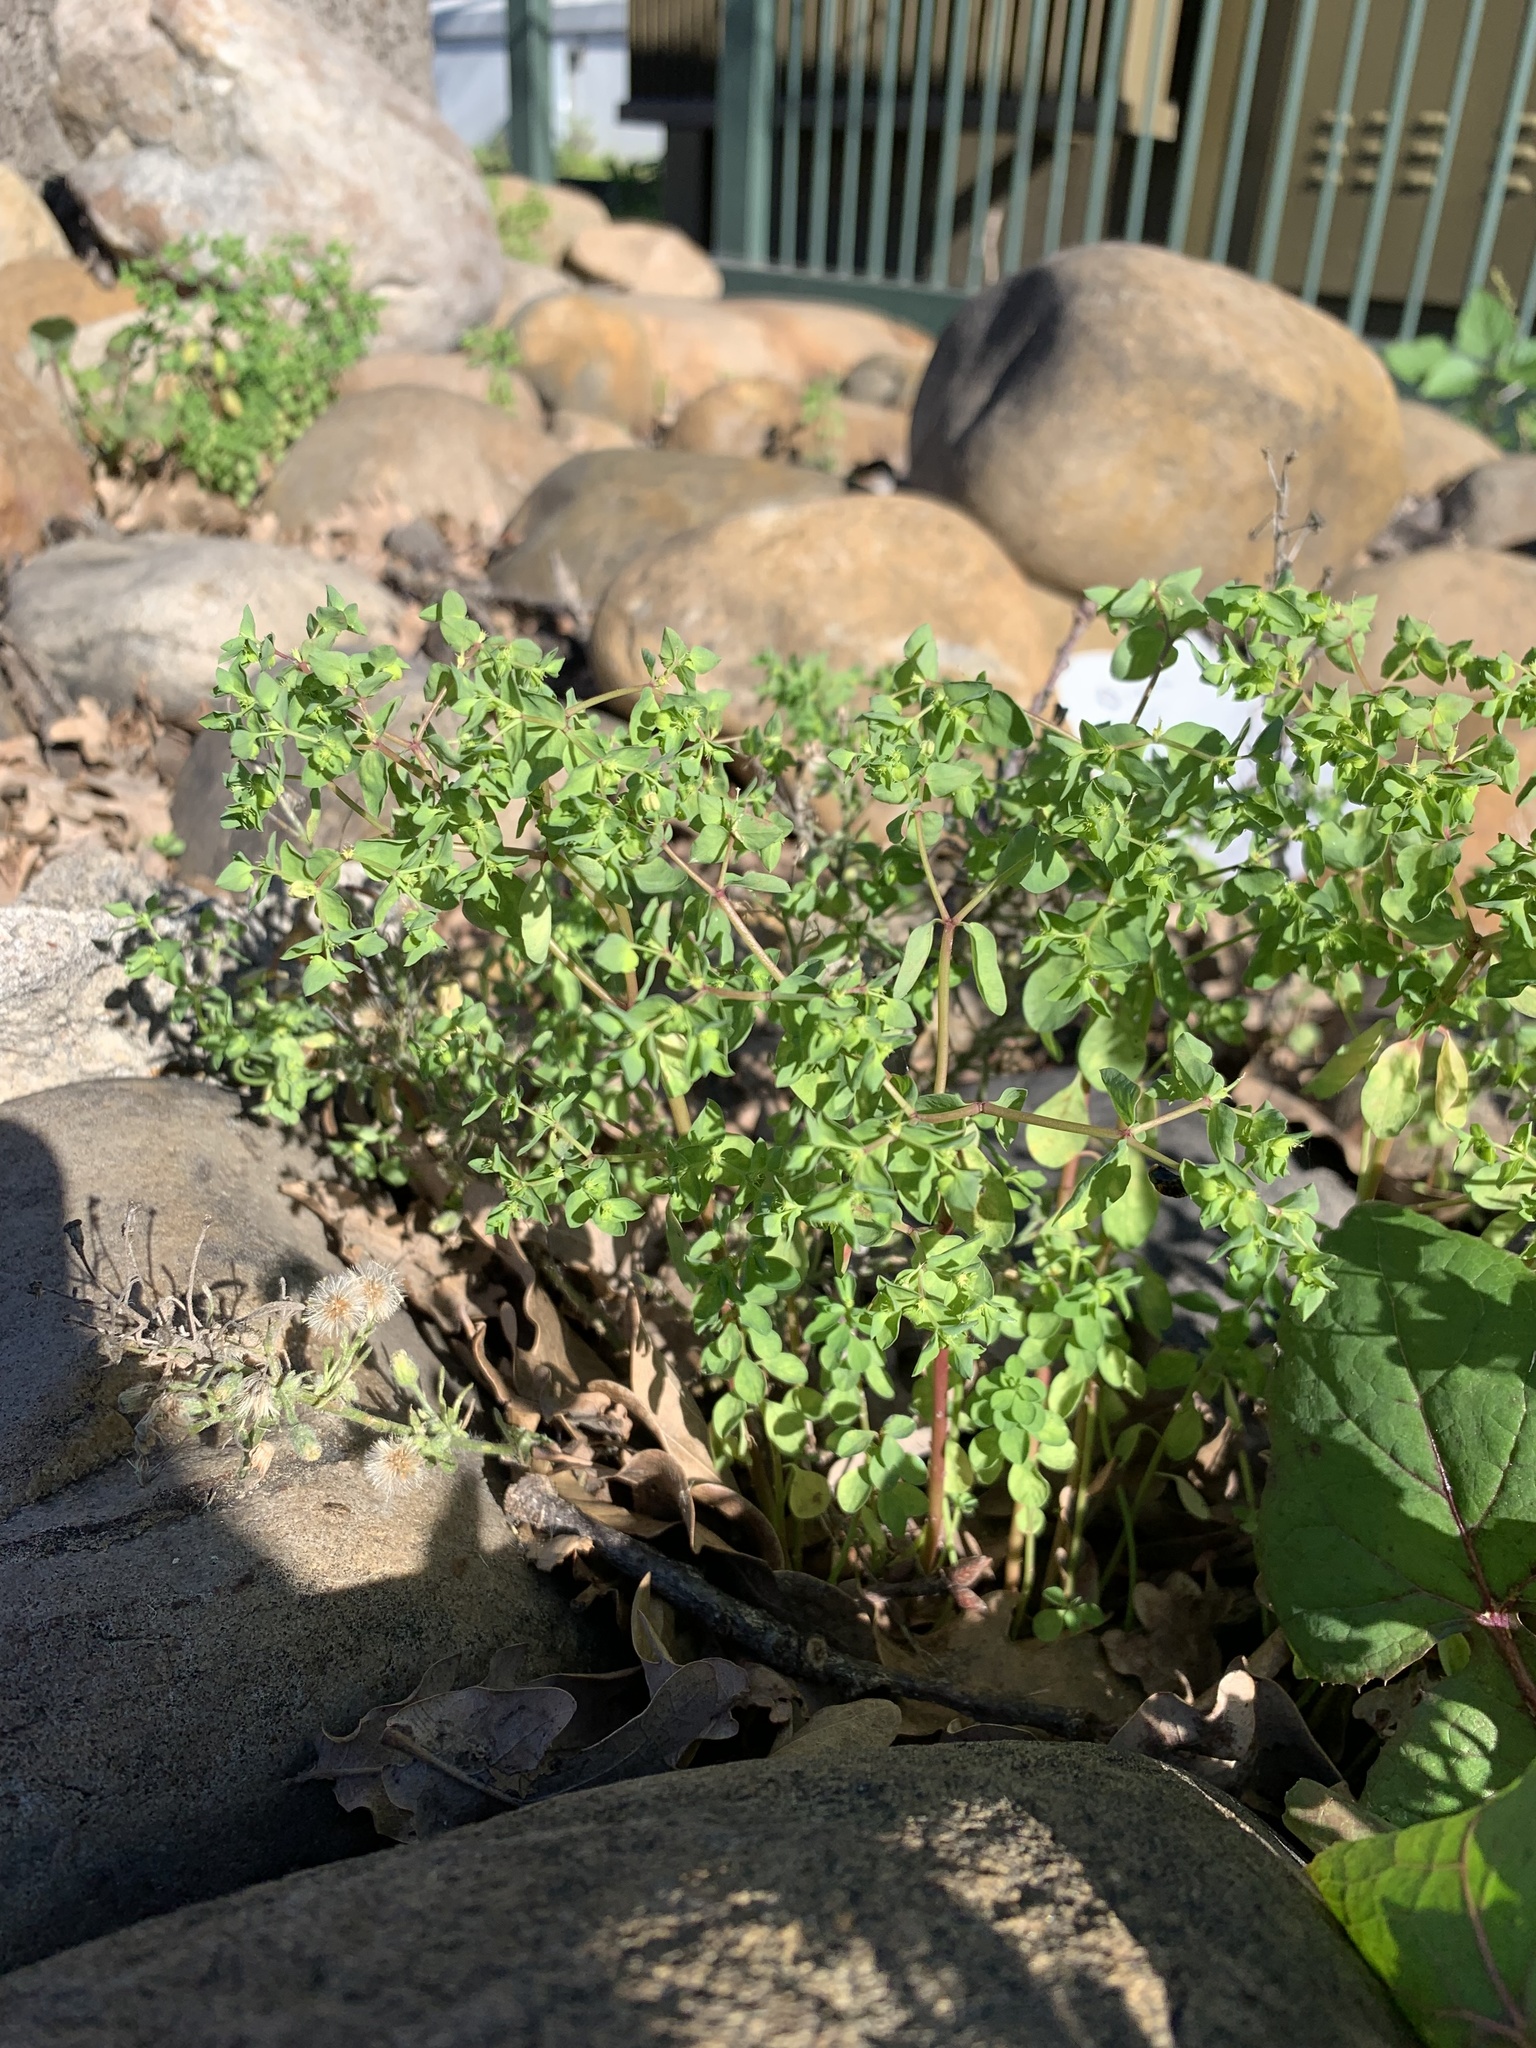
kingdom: Plantae
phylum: Tracheophyta
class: Magnoliopsida
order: Malpighiales
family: Euphorbiaceae
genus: Euphorbia
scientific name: Euphorbia peplus
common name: Petty spurge
